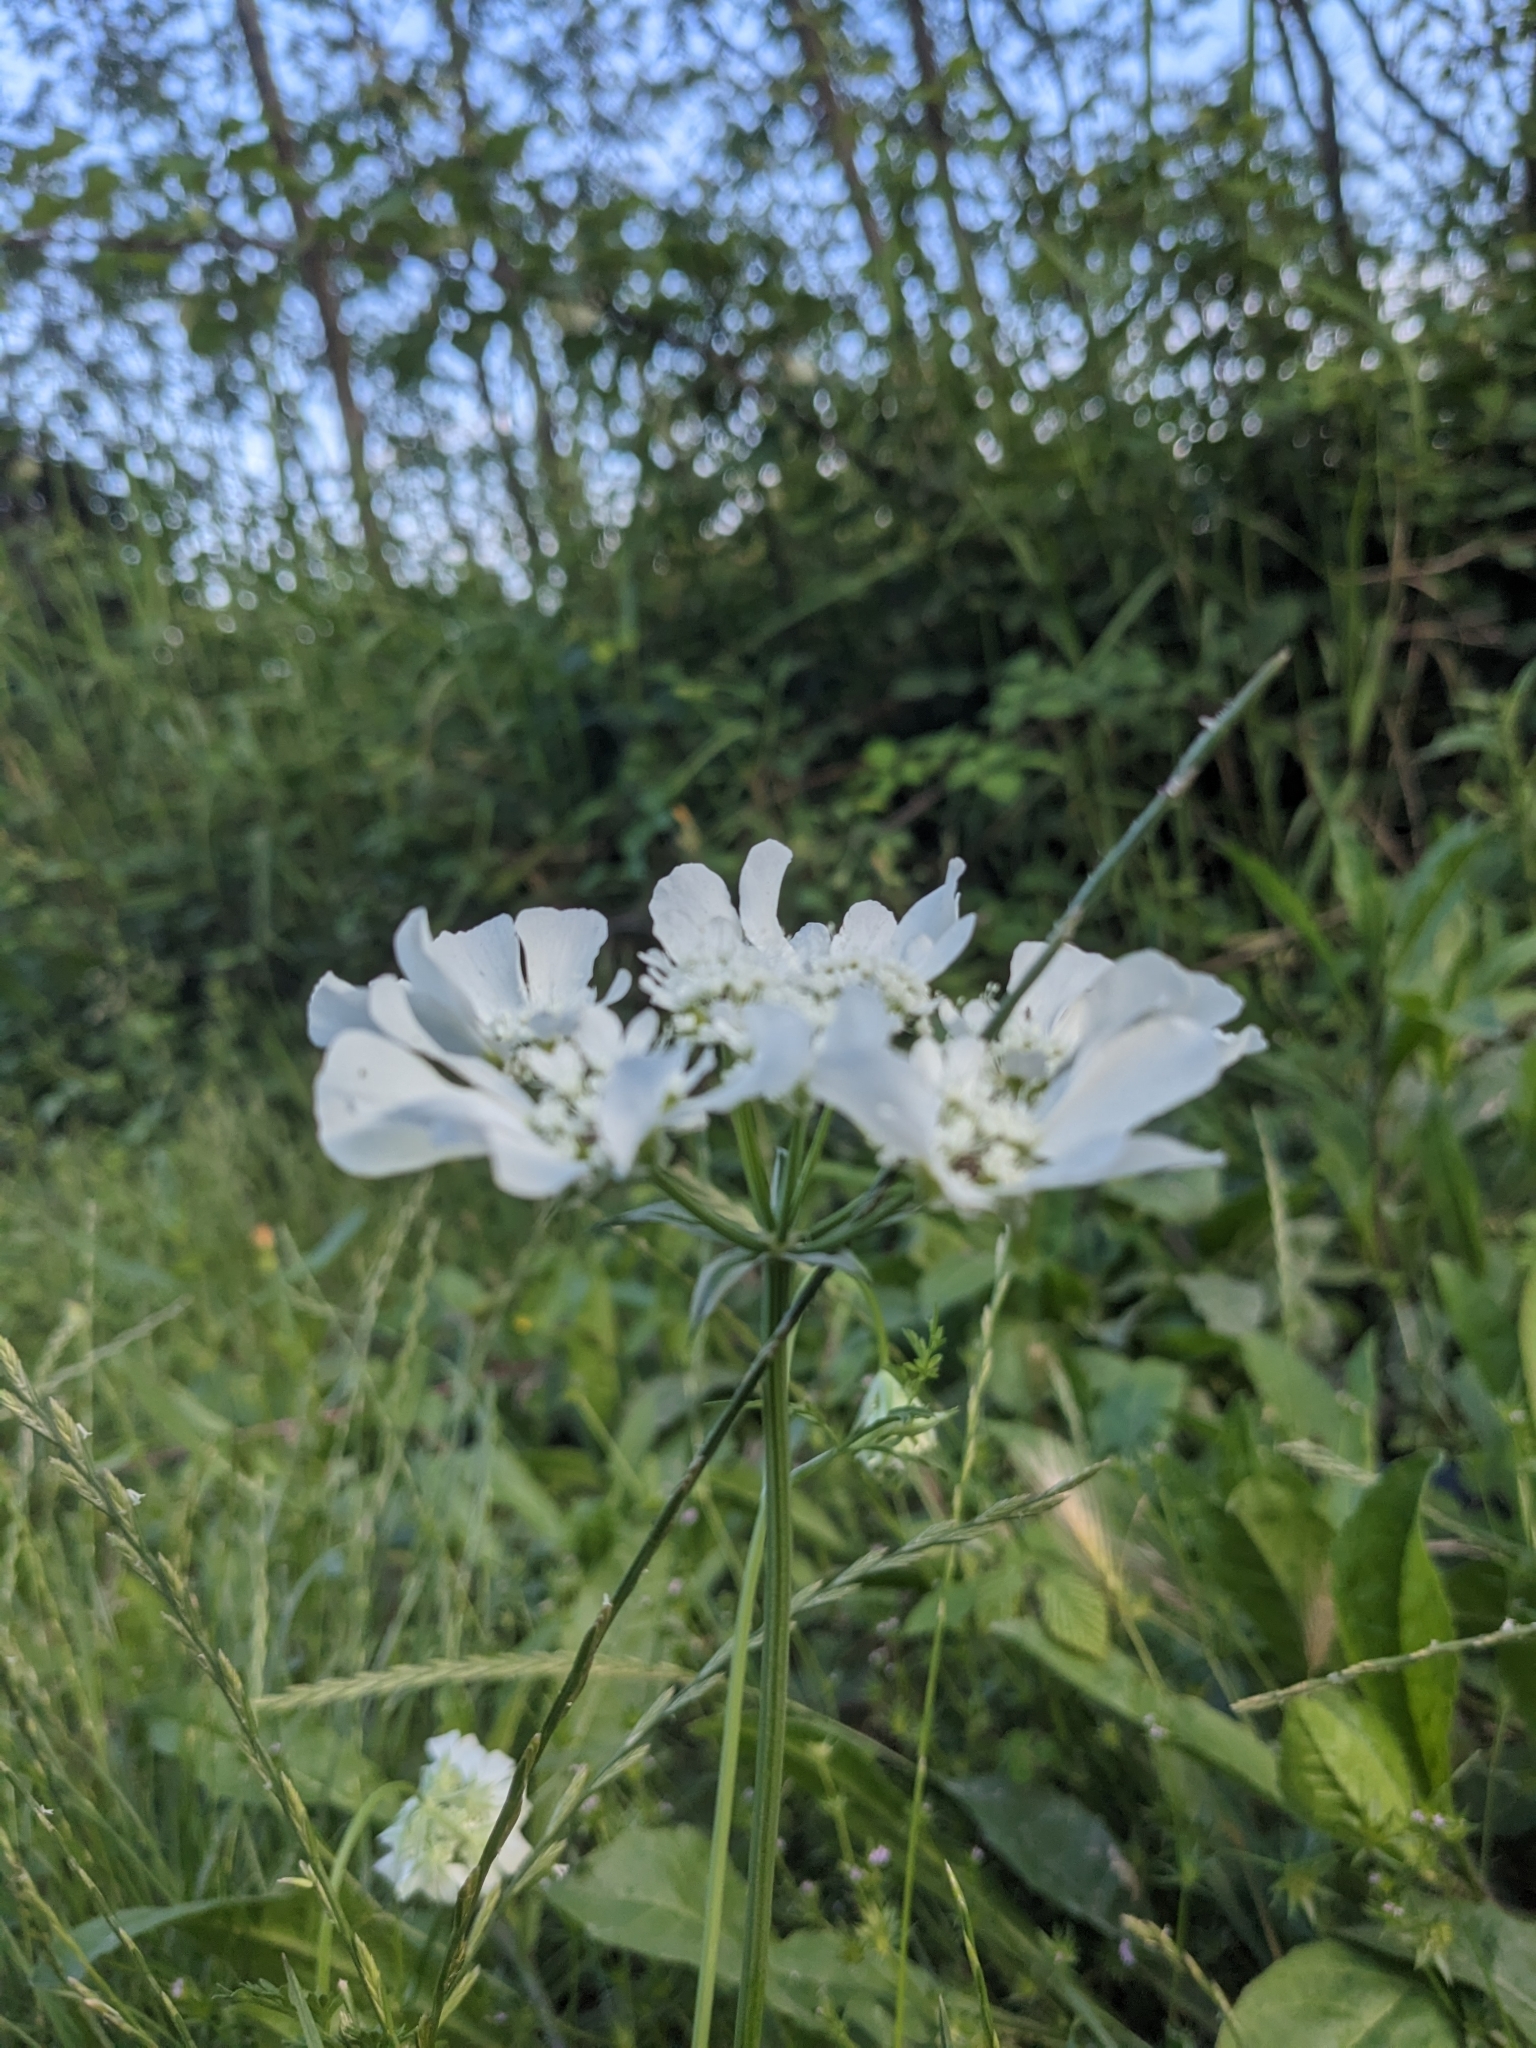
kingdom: Plantae
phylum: Tracheophyta
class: Magnoliopsida
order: Apiales
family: Apiaceae
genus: Orlaya
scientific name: Orlaya grandiflora
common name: White lace flower
